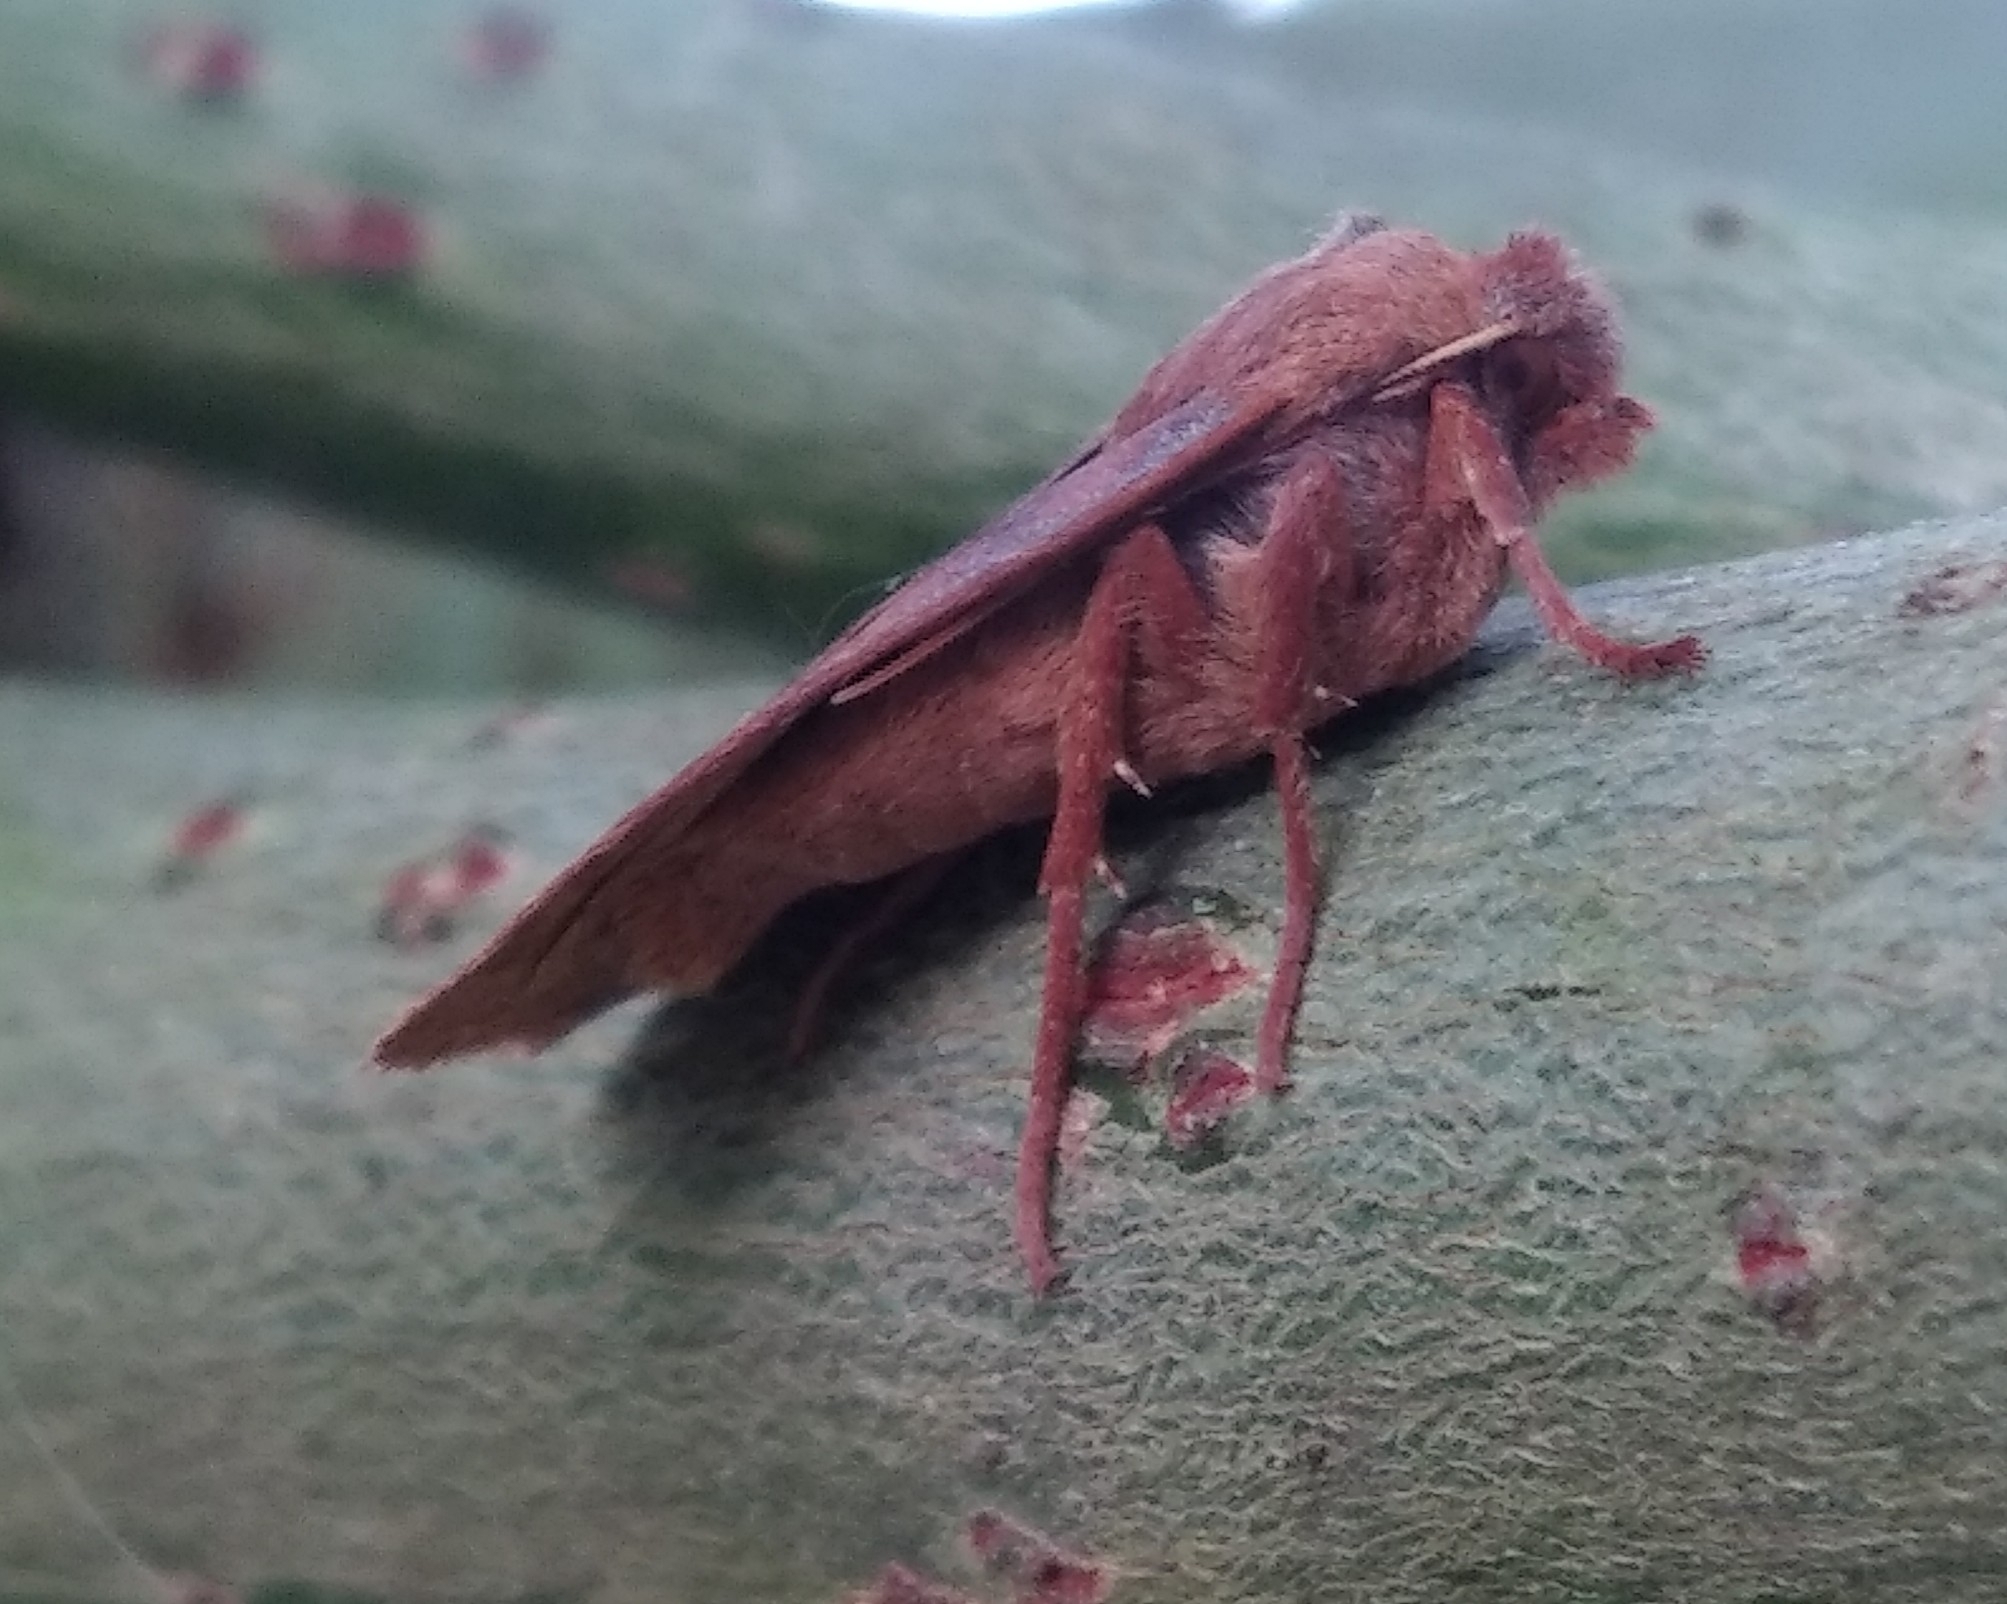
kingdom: Animalia
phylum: Arthropoda
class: Insecta
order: Lepidoptera
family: Noctuidae
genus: Conistra
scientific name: Conistra vaccinii
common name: Chestnut
